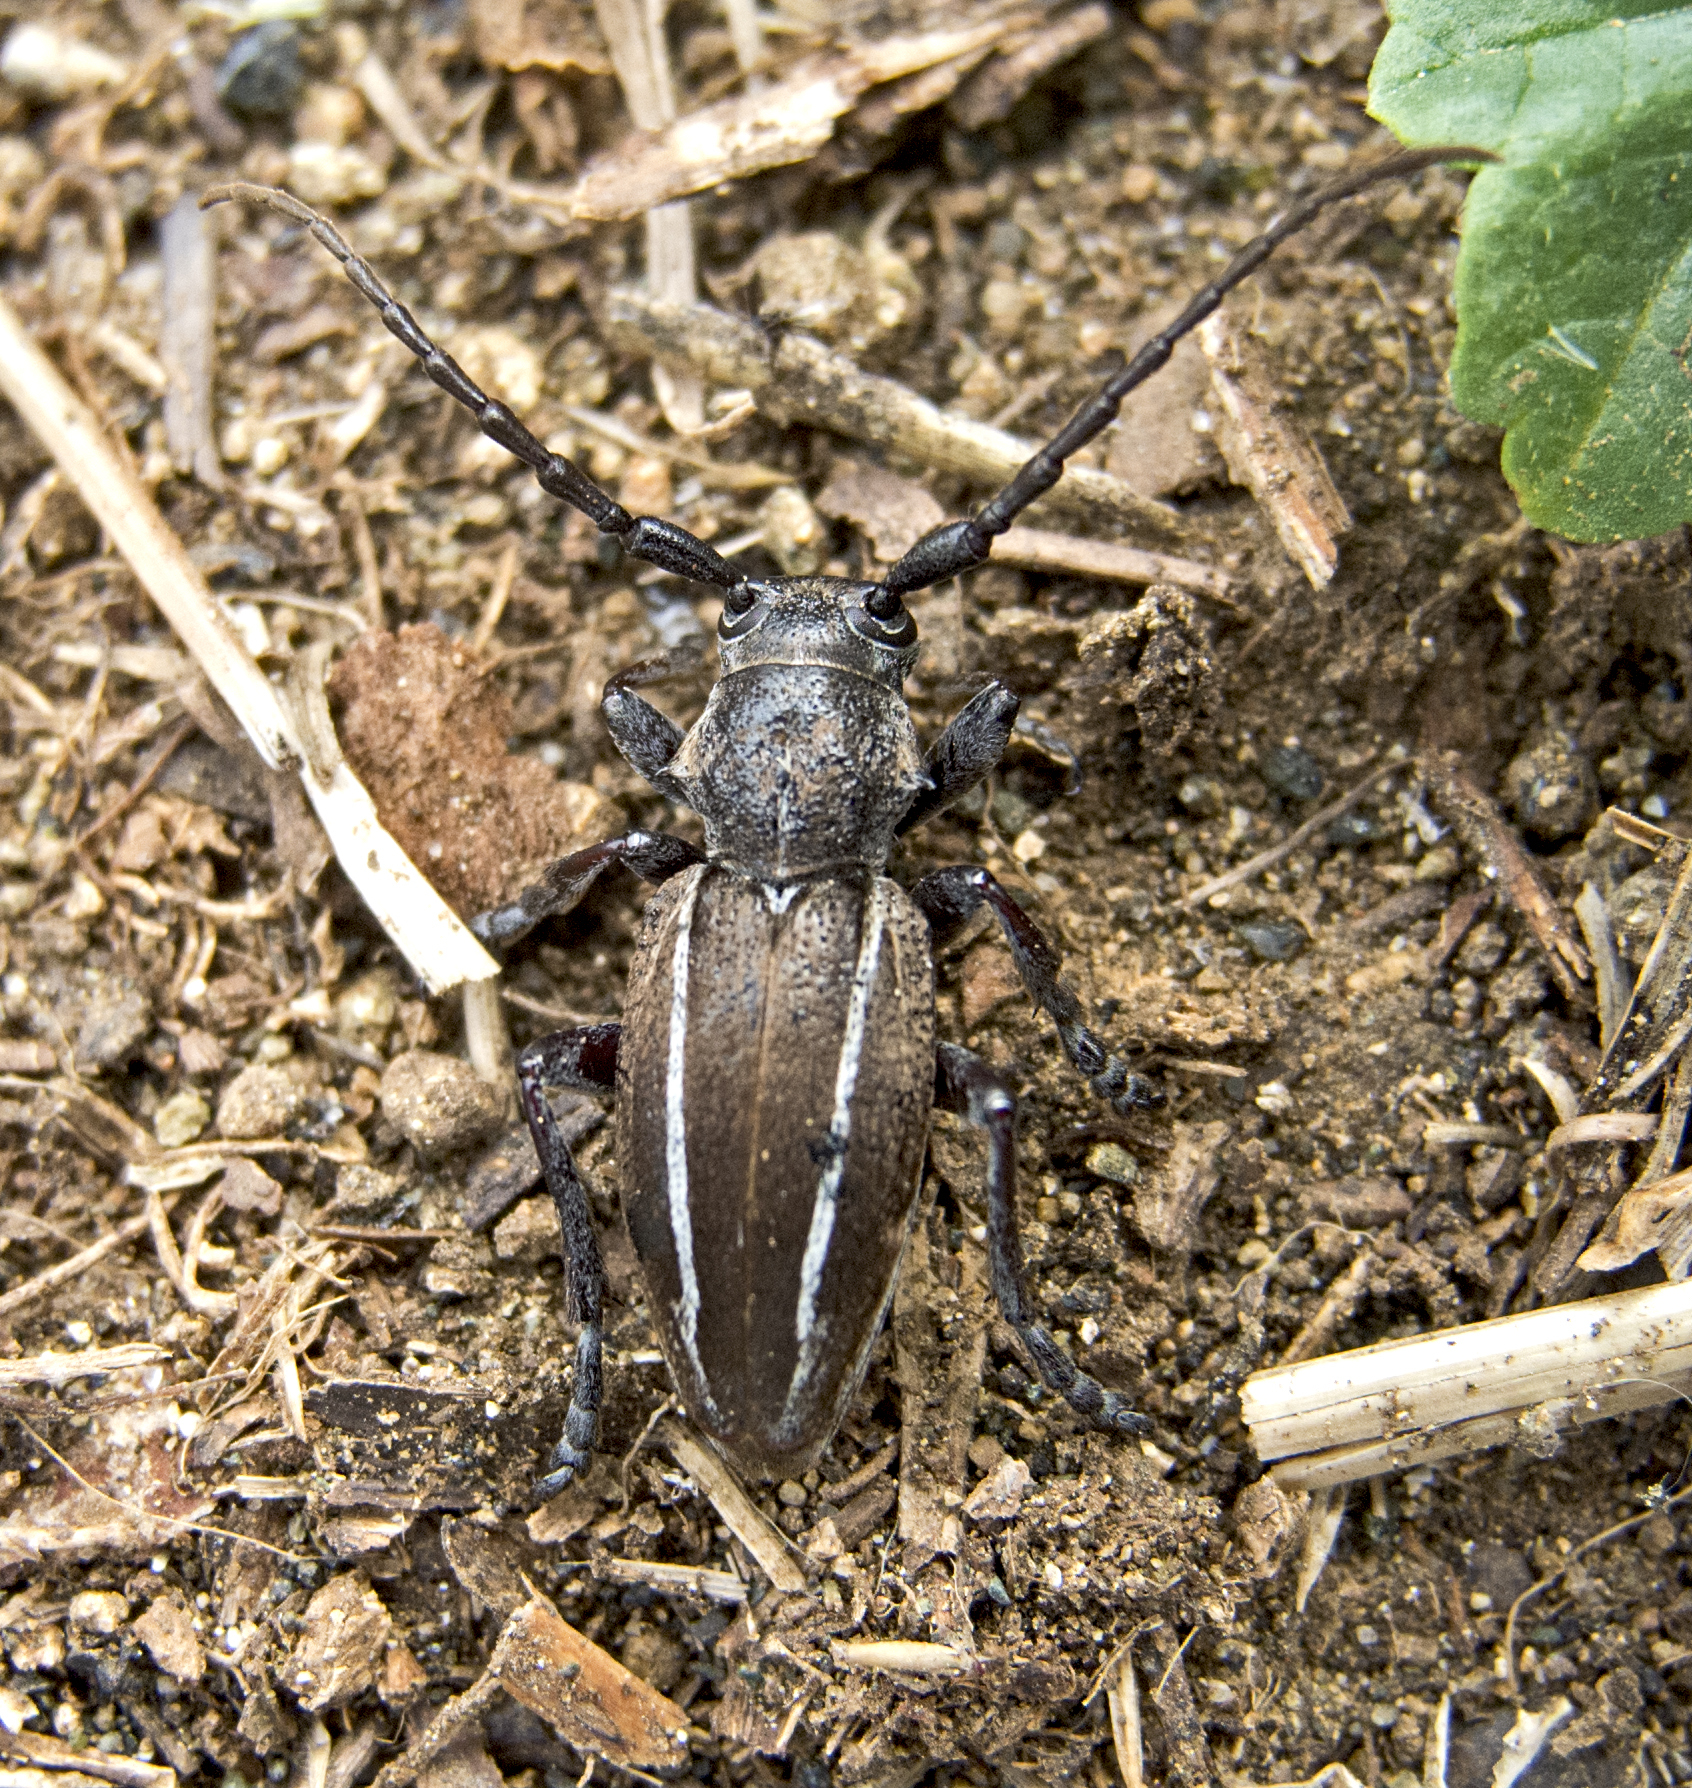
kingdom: Animalia
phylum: Arthropoda
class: Insecta
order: Coleoptera
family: Cerambycidae
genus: Neodorcadion
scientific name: Neodorcadion bilineatum
